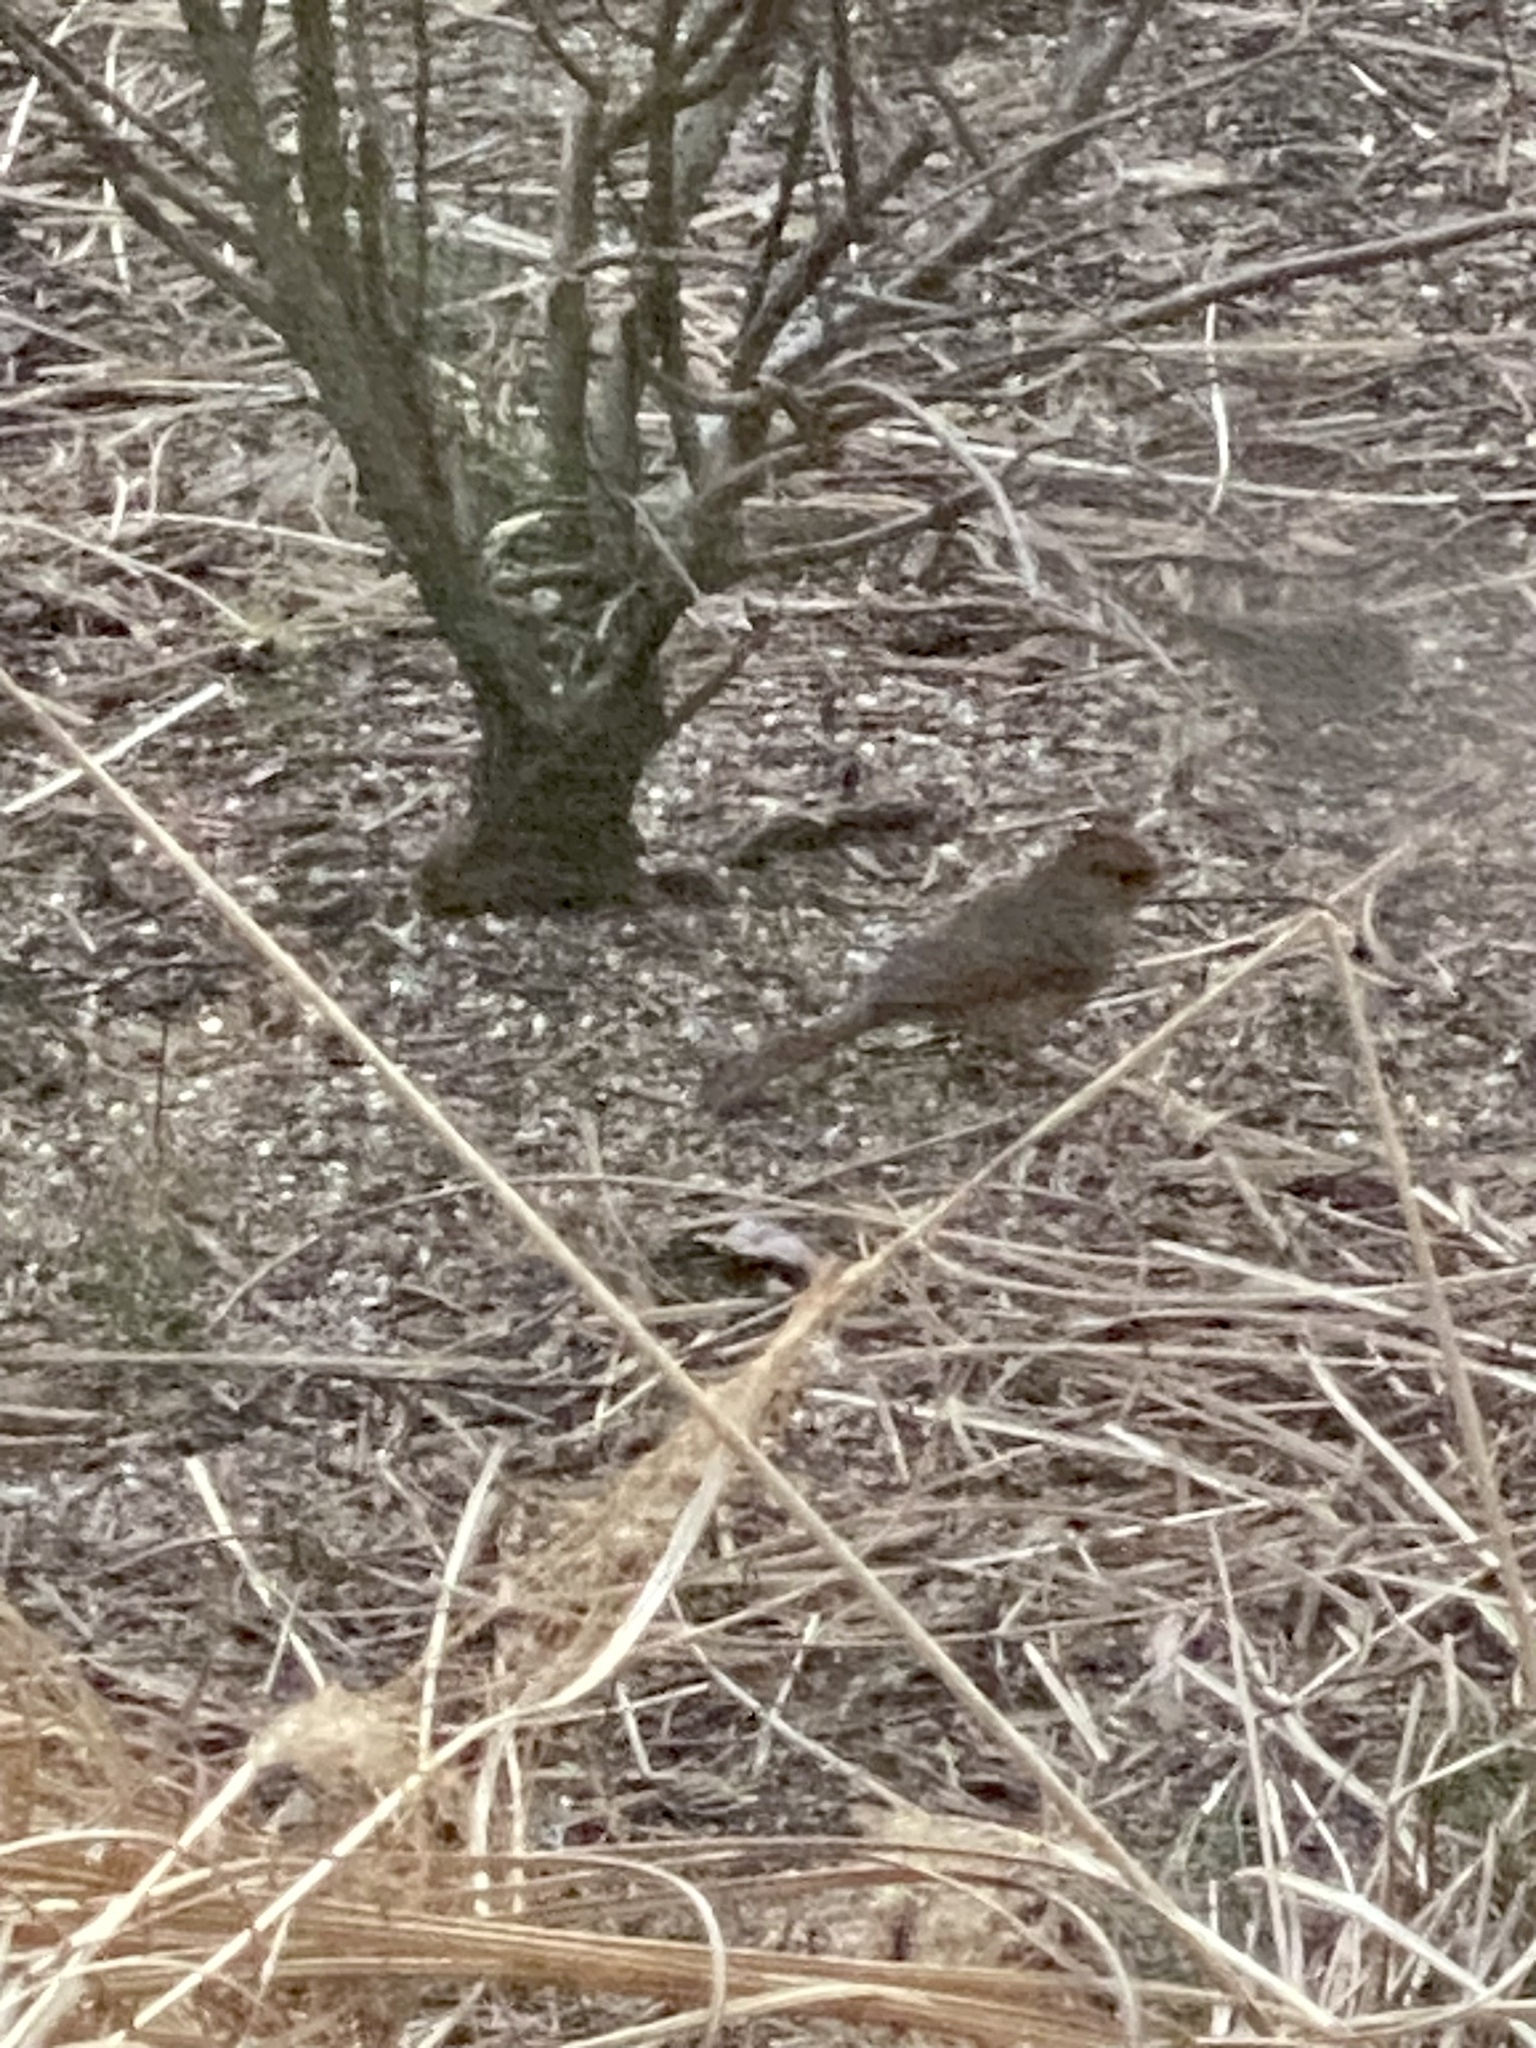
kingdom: Animalia
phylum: Chordata
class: Aves
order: Passeriformes
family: Cardinalidae
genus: Cardinalis
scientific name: Cardinalis cardinalis
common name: Northern cardinal
